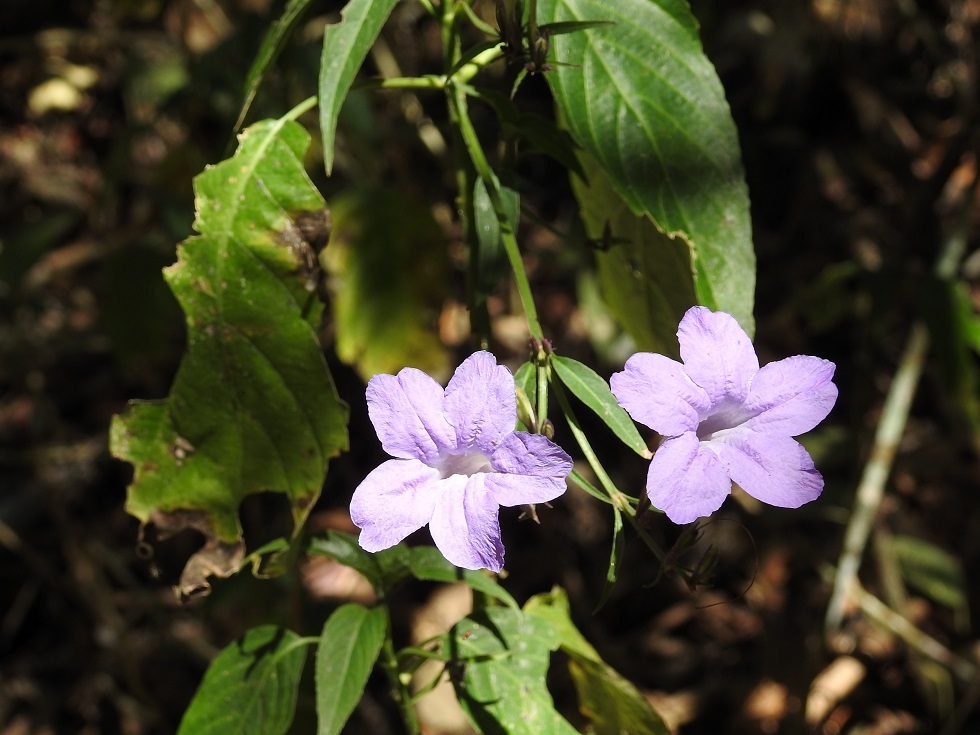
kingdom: Plantae
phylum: Tracheophyta
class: Magnoliopsida
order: Lamiales
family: Acanthaceae
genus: Ruellia
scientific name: Ruellia breedlovei
